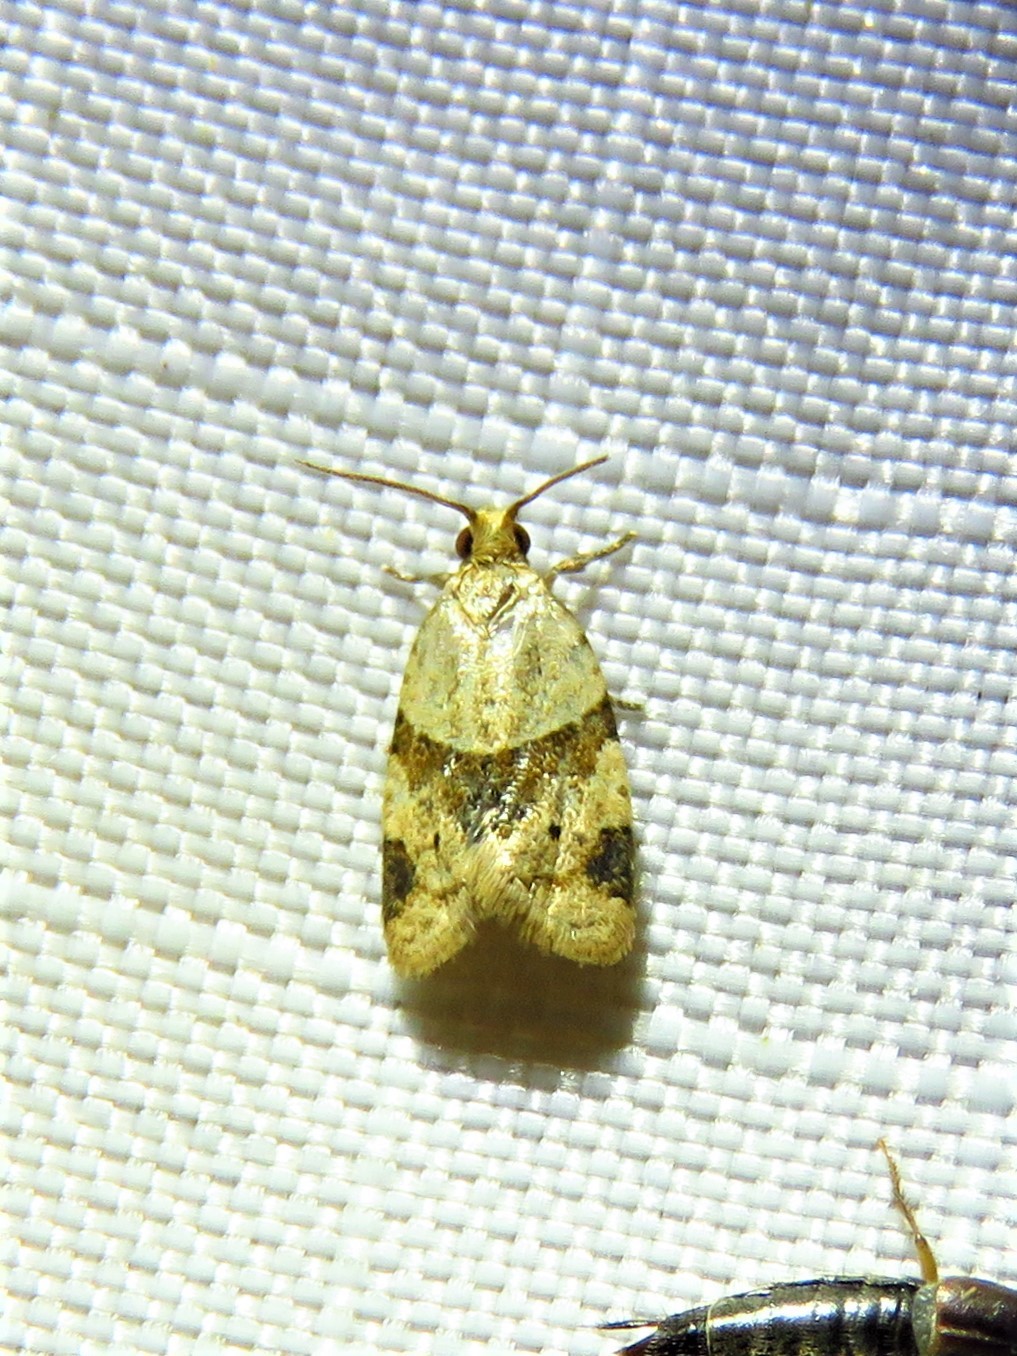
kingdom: Animalia
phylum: Arthropoda
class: Insecta
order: Lepidoptera
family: Tortricidae
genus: Clepsis
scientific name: Clepsis peritana
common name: Garden tortrix
